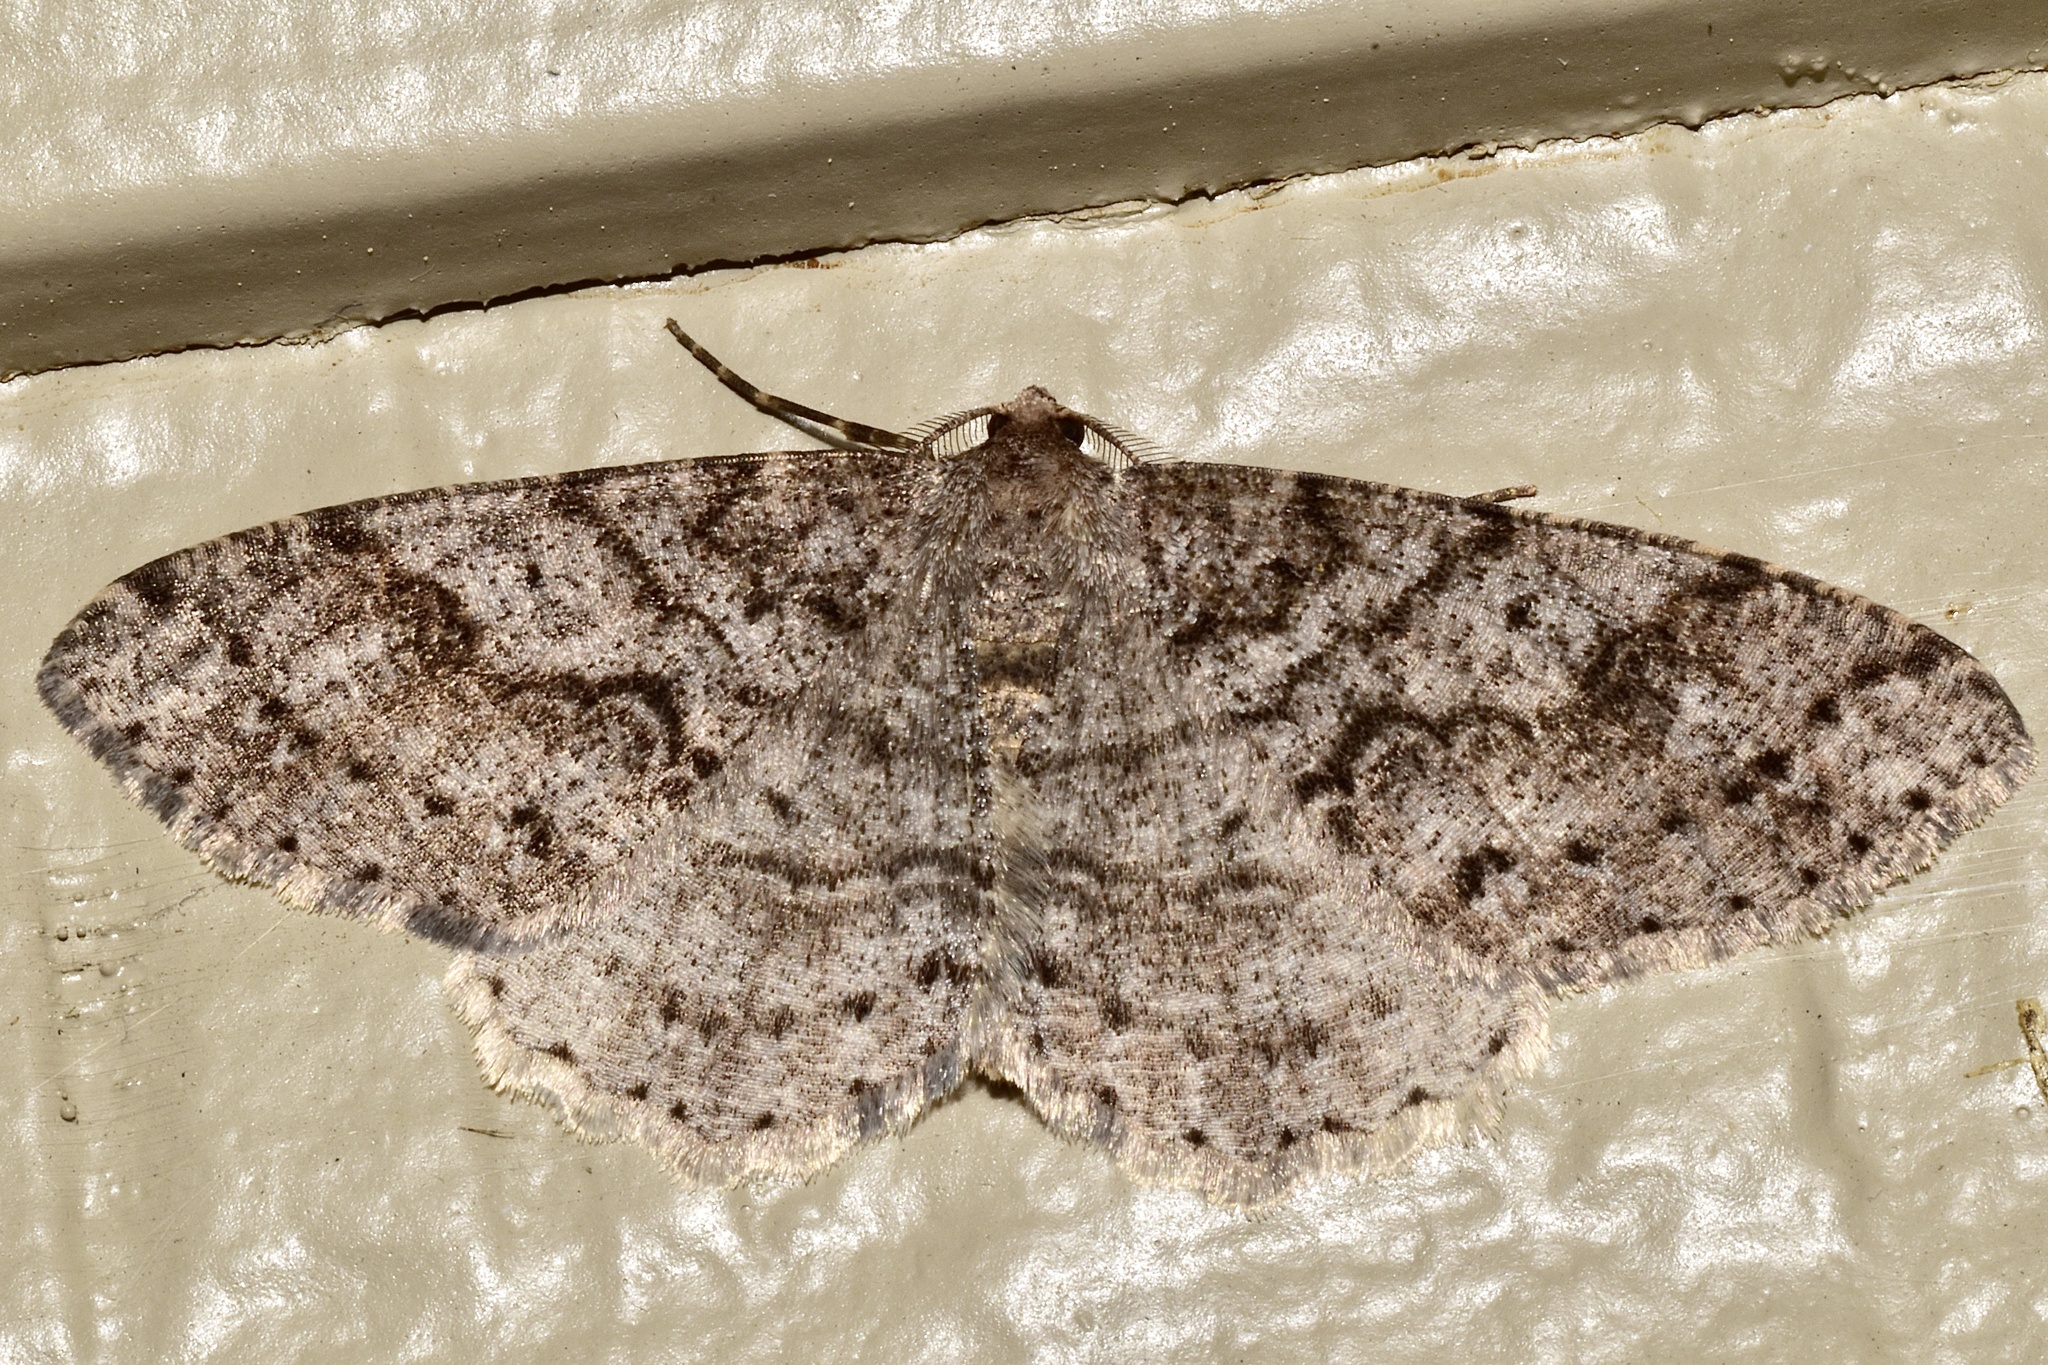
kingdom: Animalia
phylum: Arthropoda
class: Insecta
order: Lepidoptera
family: Geometridae
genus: Melanolophia
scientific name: Melanolophia imitata
